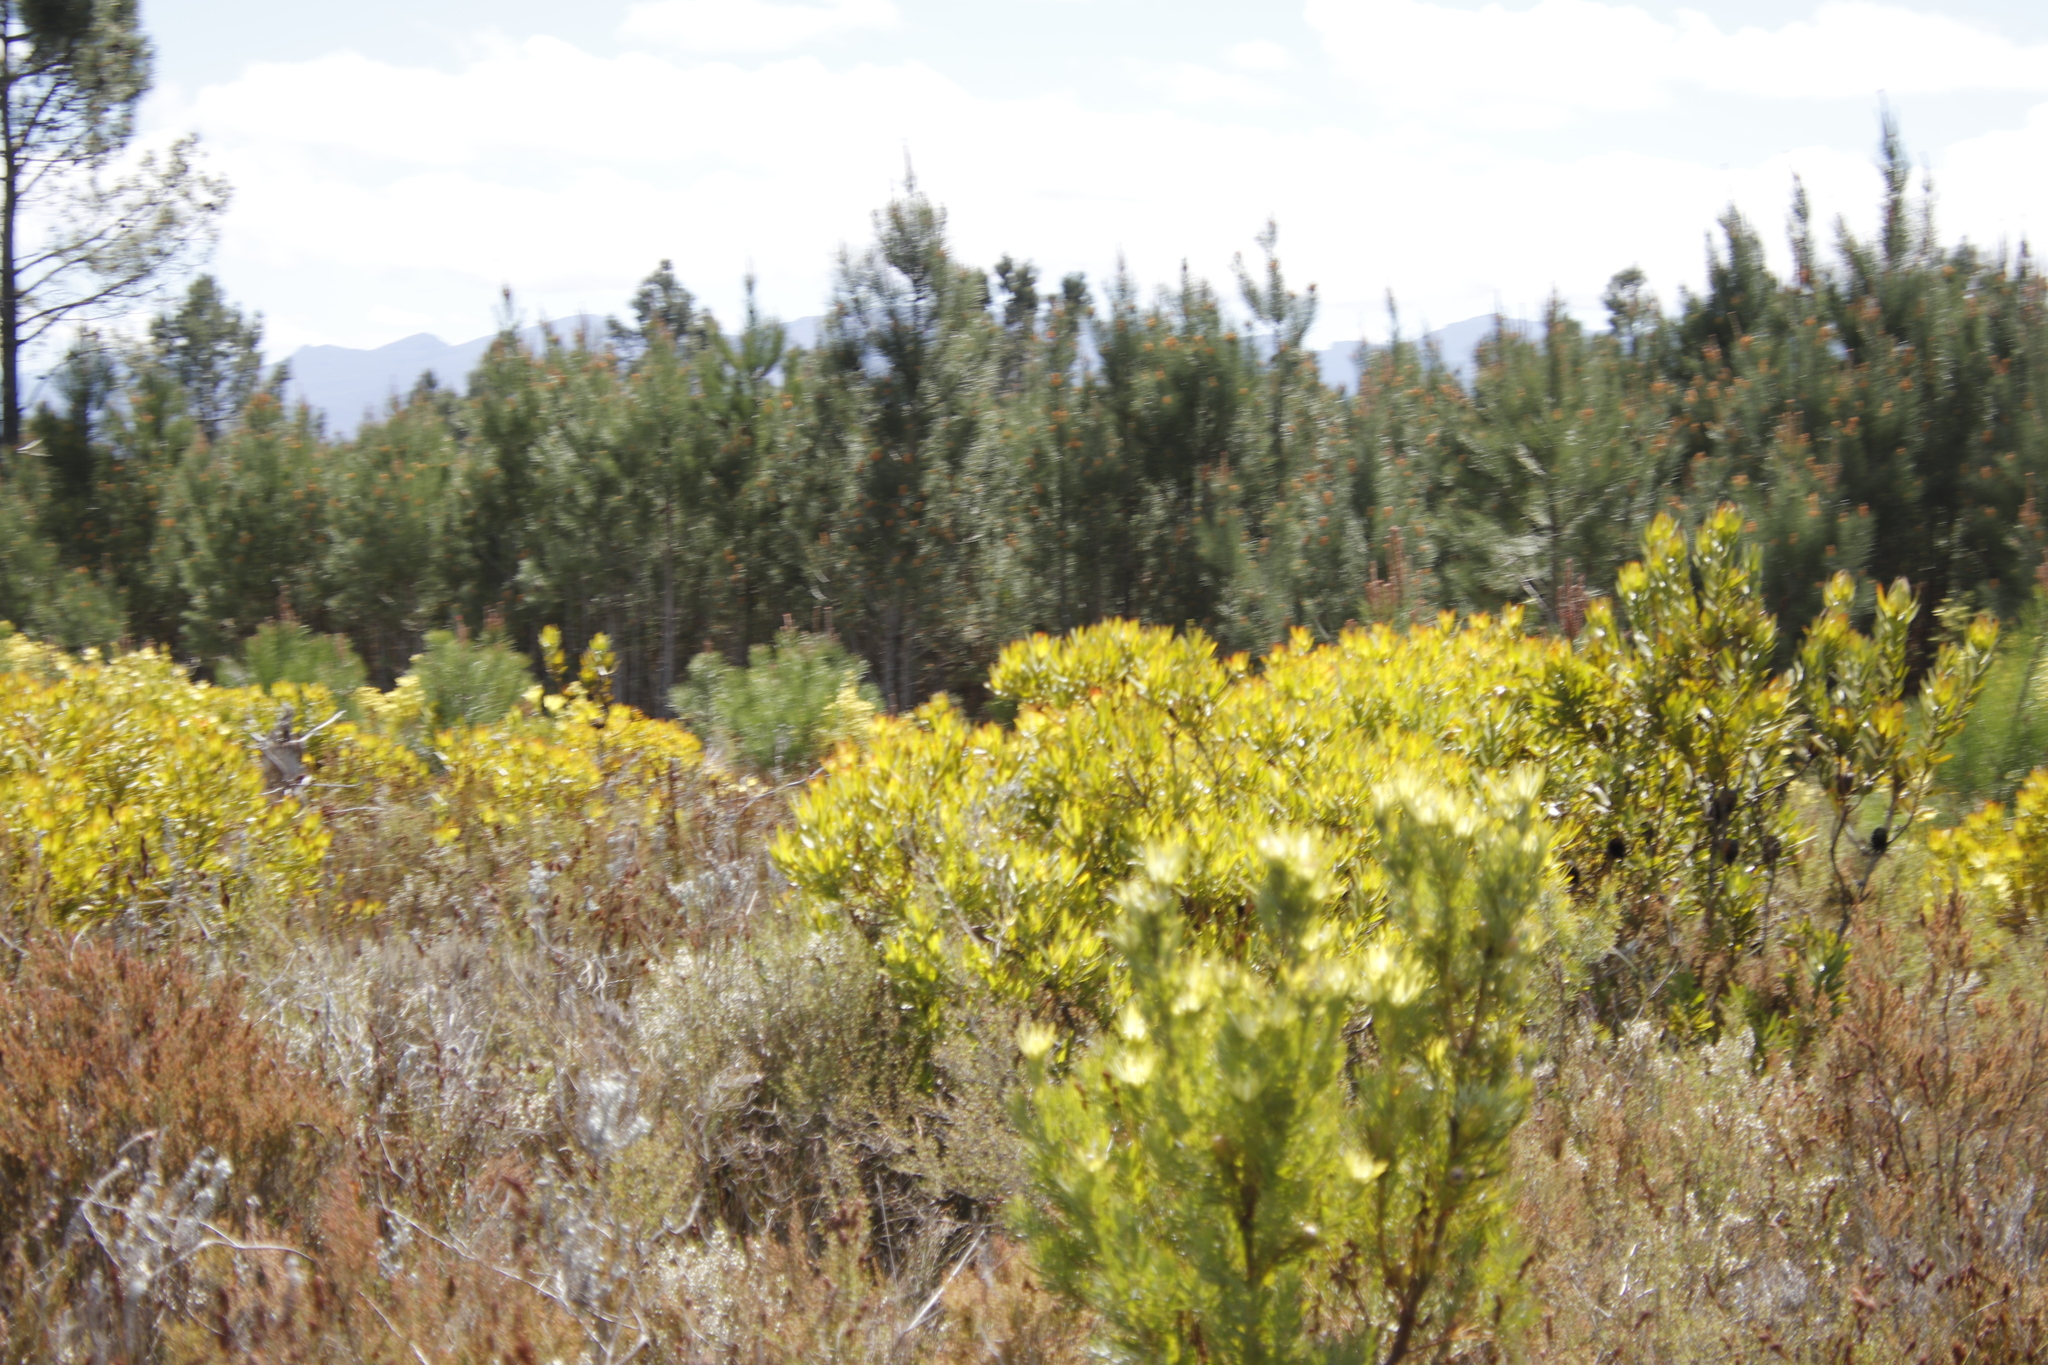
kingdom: Plantae
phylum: Tracheophyta
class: Magnoliopsida
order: Proteales
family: Proteaceae
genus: Leucadendron
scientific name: Leucadendron xanthoconus
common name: Sickle-leaf conebush
